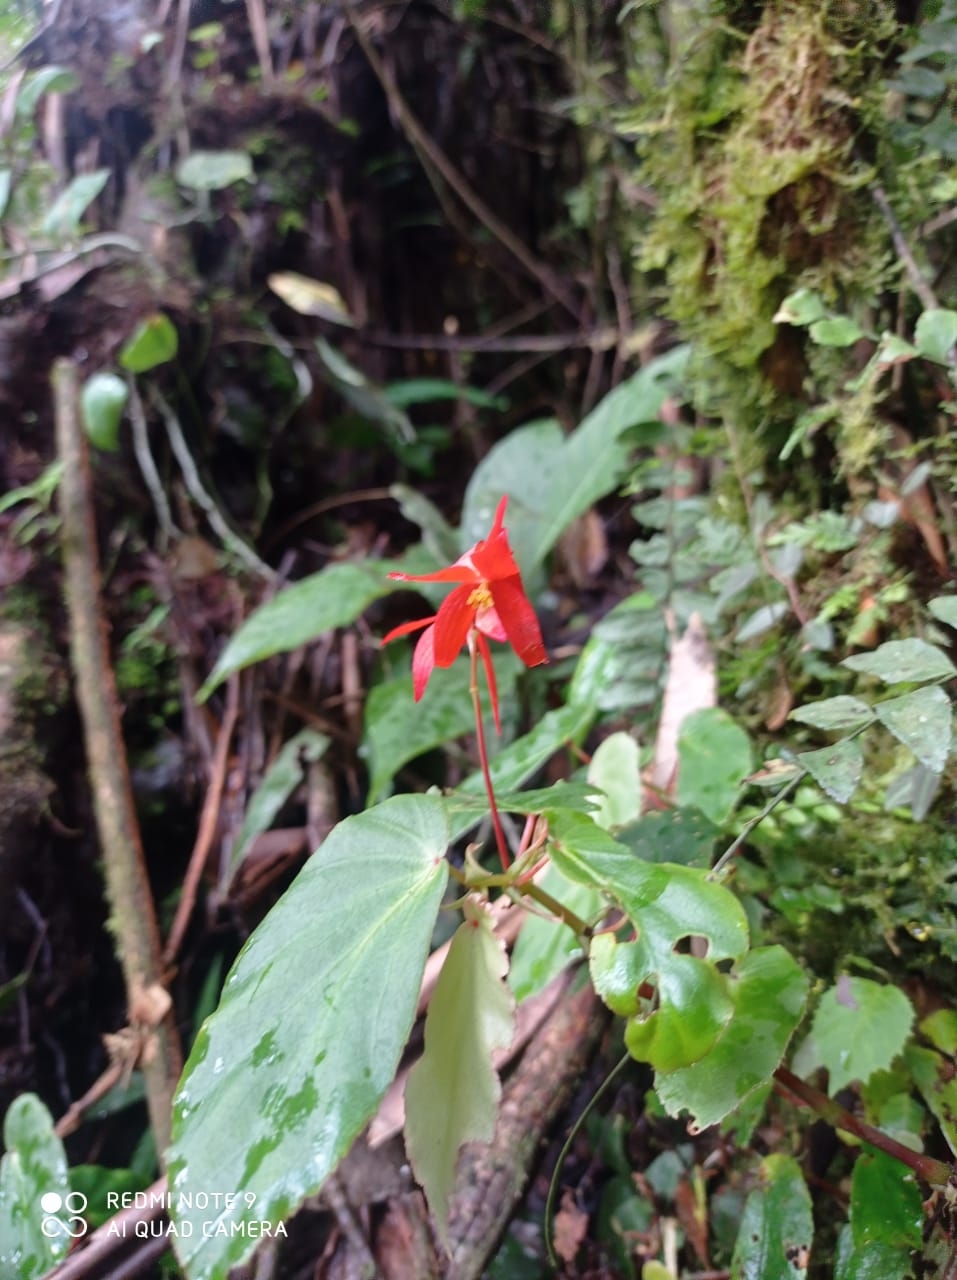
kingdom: Plantae
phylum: Tracheophyta
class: Magnoliopsida
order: Cucurbitales
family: Begoniaceae
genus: Begonia
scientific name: Begonia
